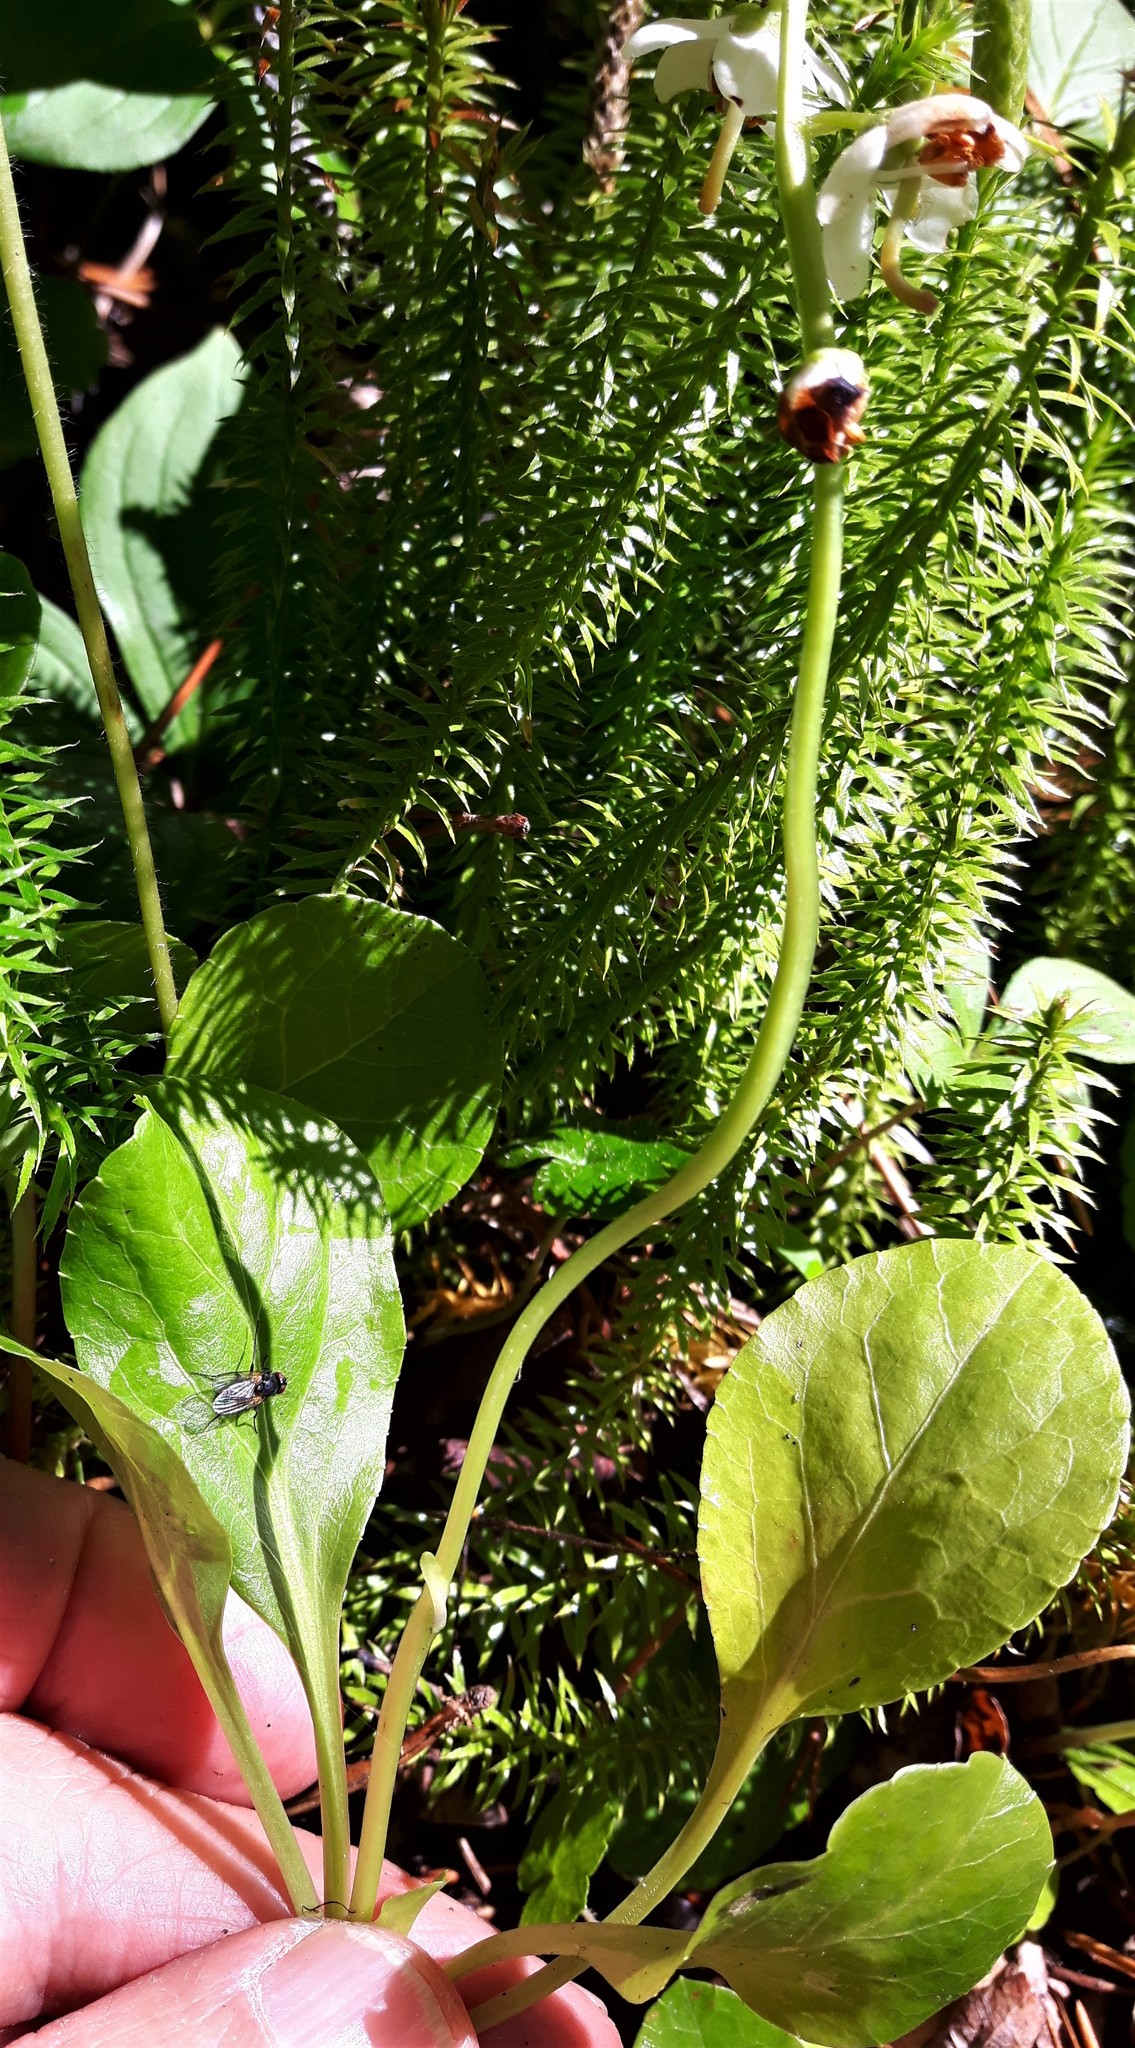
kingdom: Plantae
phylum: Tracheophyta
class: Magnoliopsida
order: Ericales
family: Ericaceae
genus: Pyrola
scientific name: Pyrola elliptica
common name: Shinleaf
